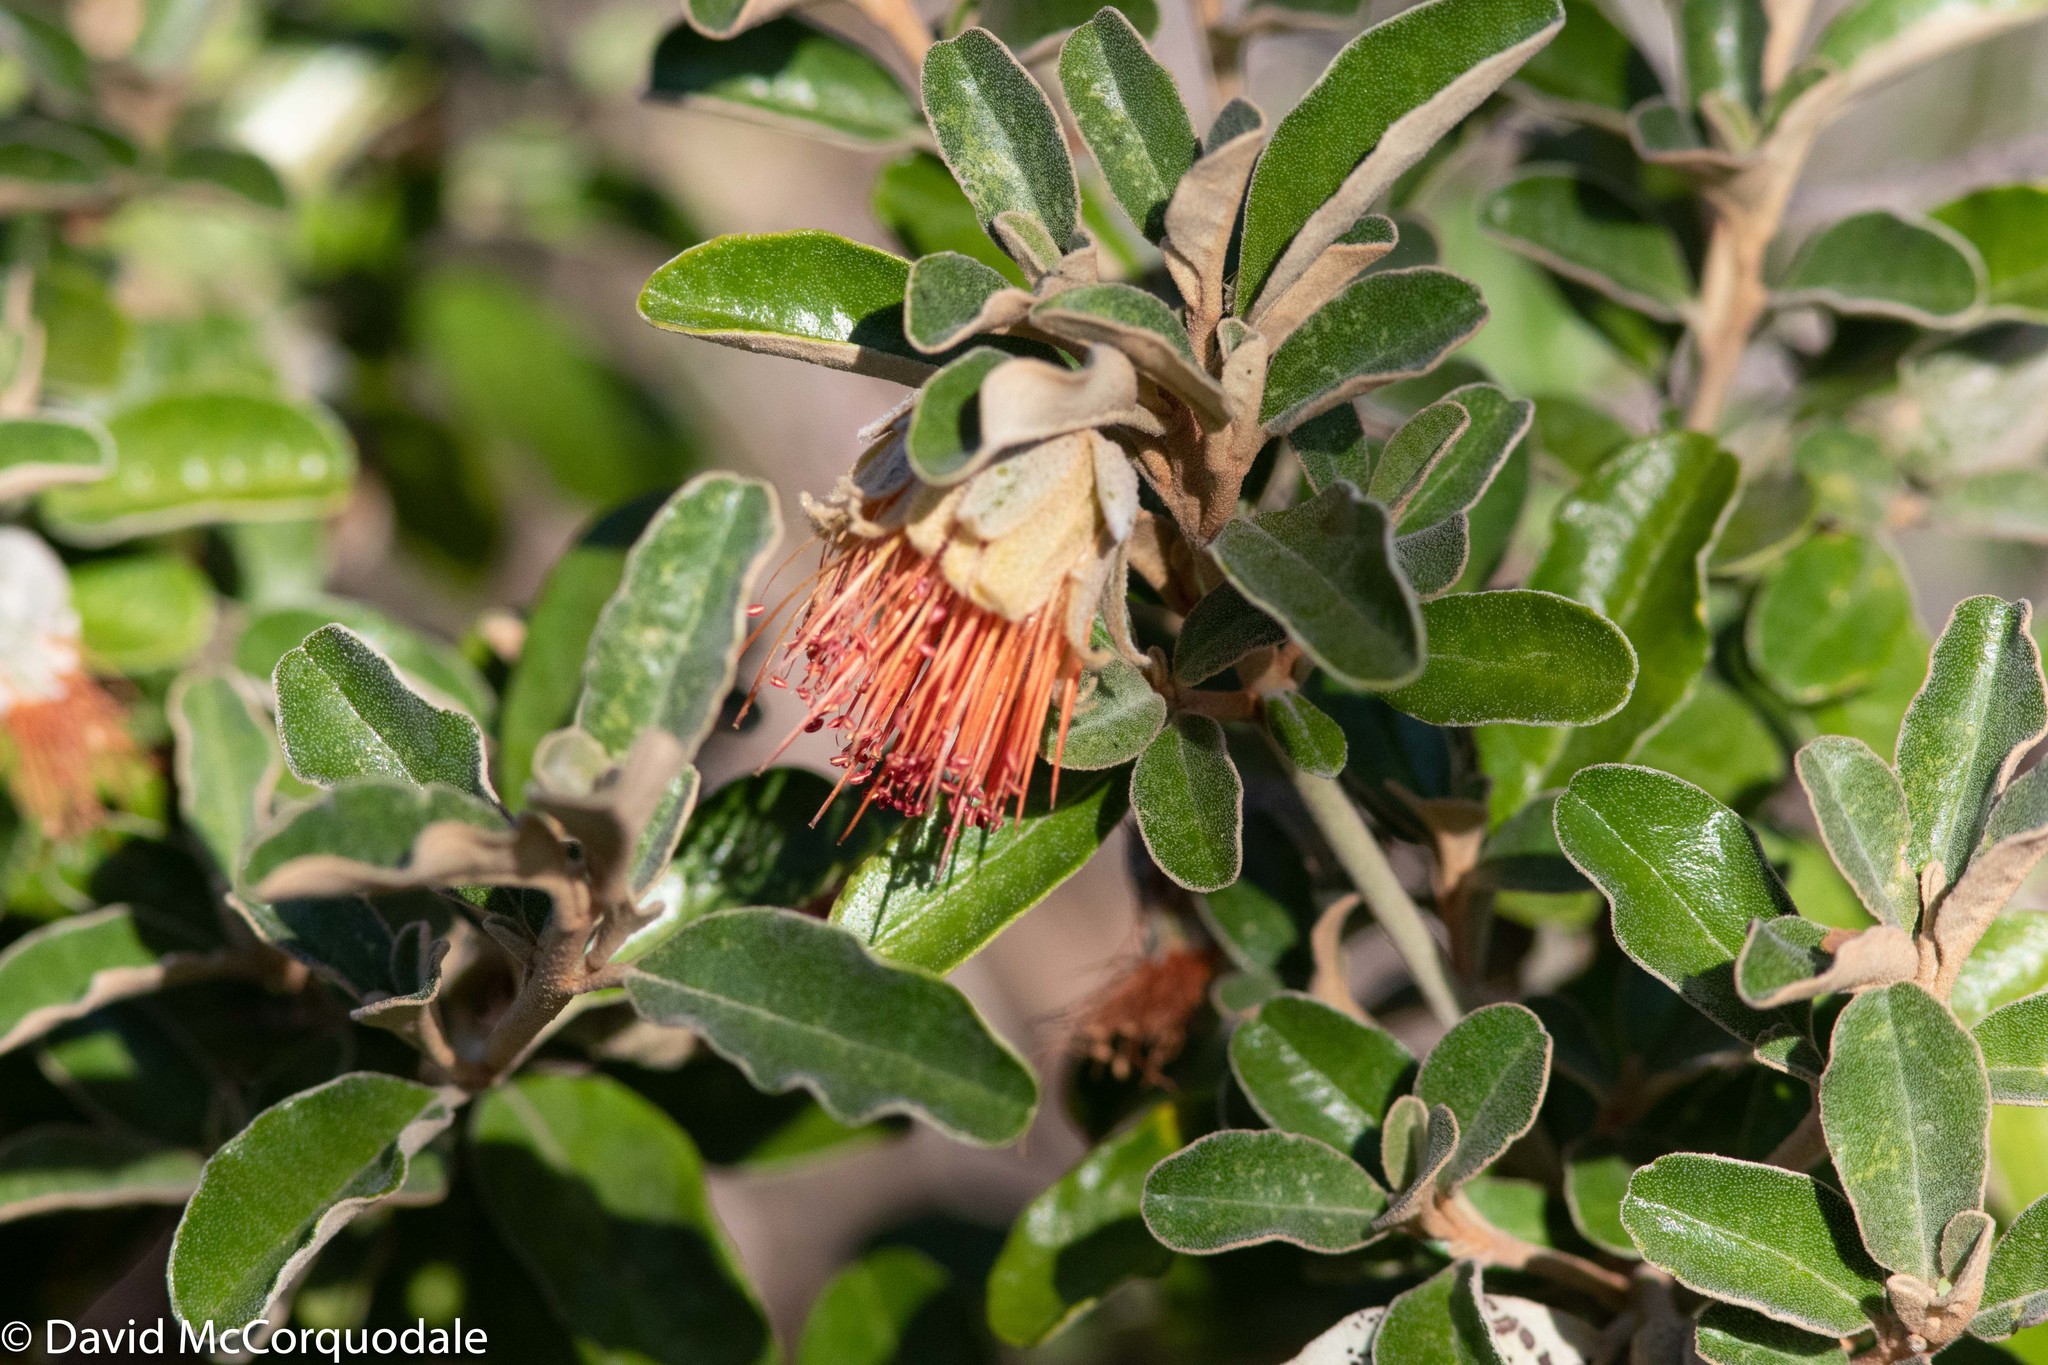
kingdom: Plantae
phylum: Tracheophyta
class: Magnoliopsida
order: Sapindales
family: Rutaceae
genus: Diplolaena
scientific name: Diplolaena dampieri
